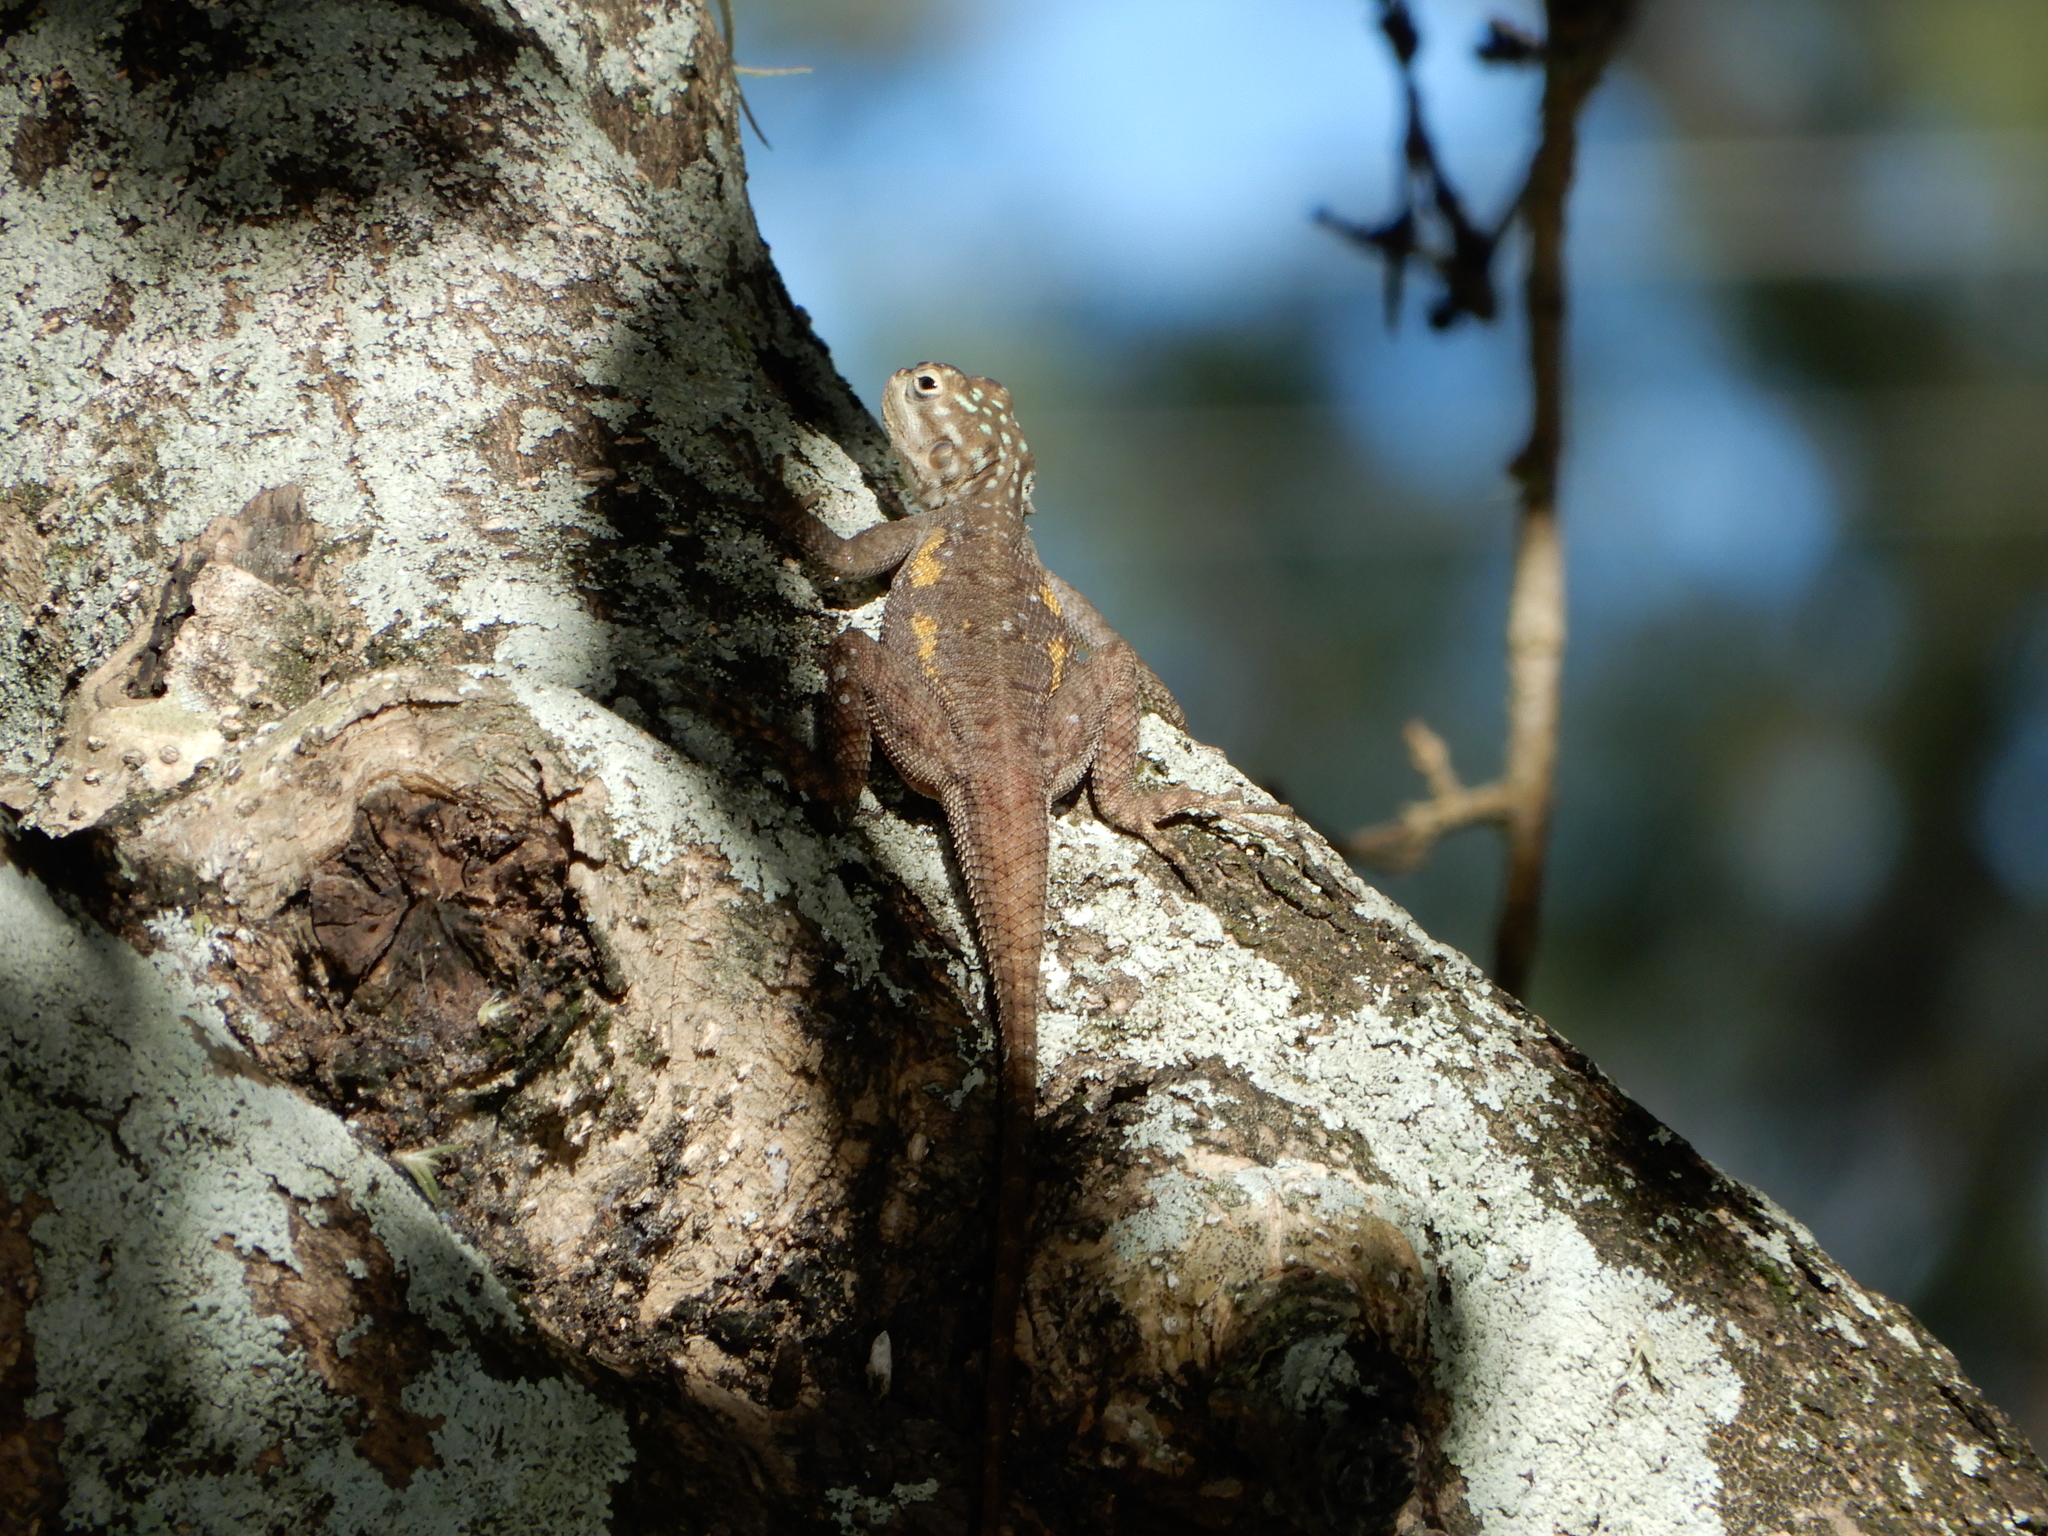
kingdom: Animalia
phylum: Chordata
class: Squamata
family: Agamidae
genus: Agama
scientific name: Agama picticauda
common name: Red-headed agama
